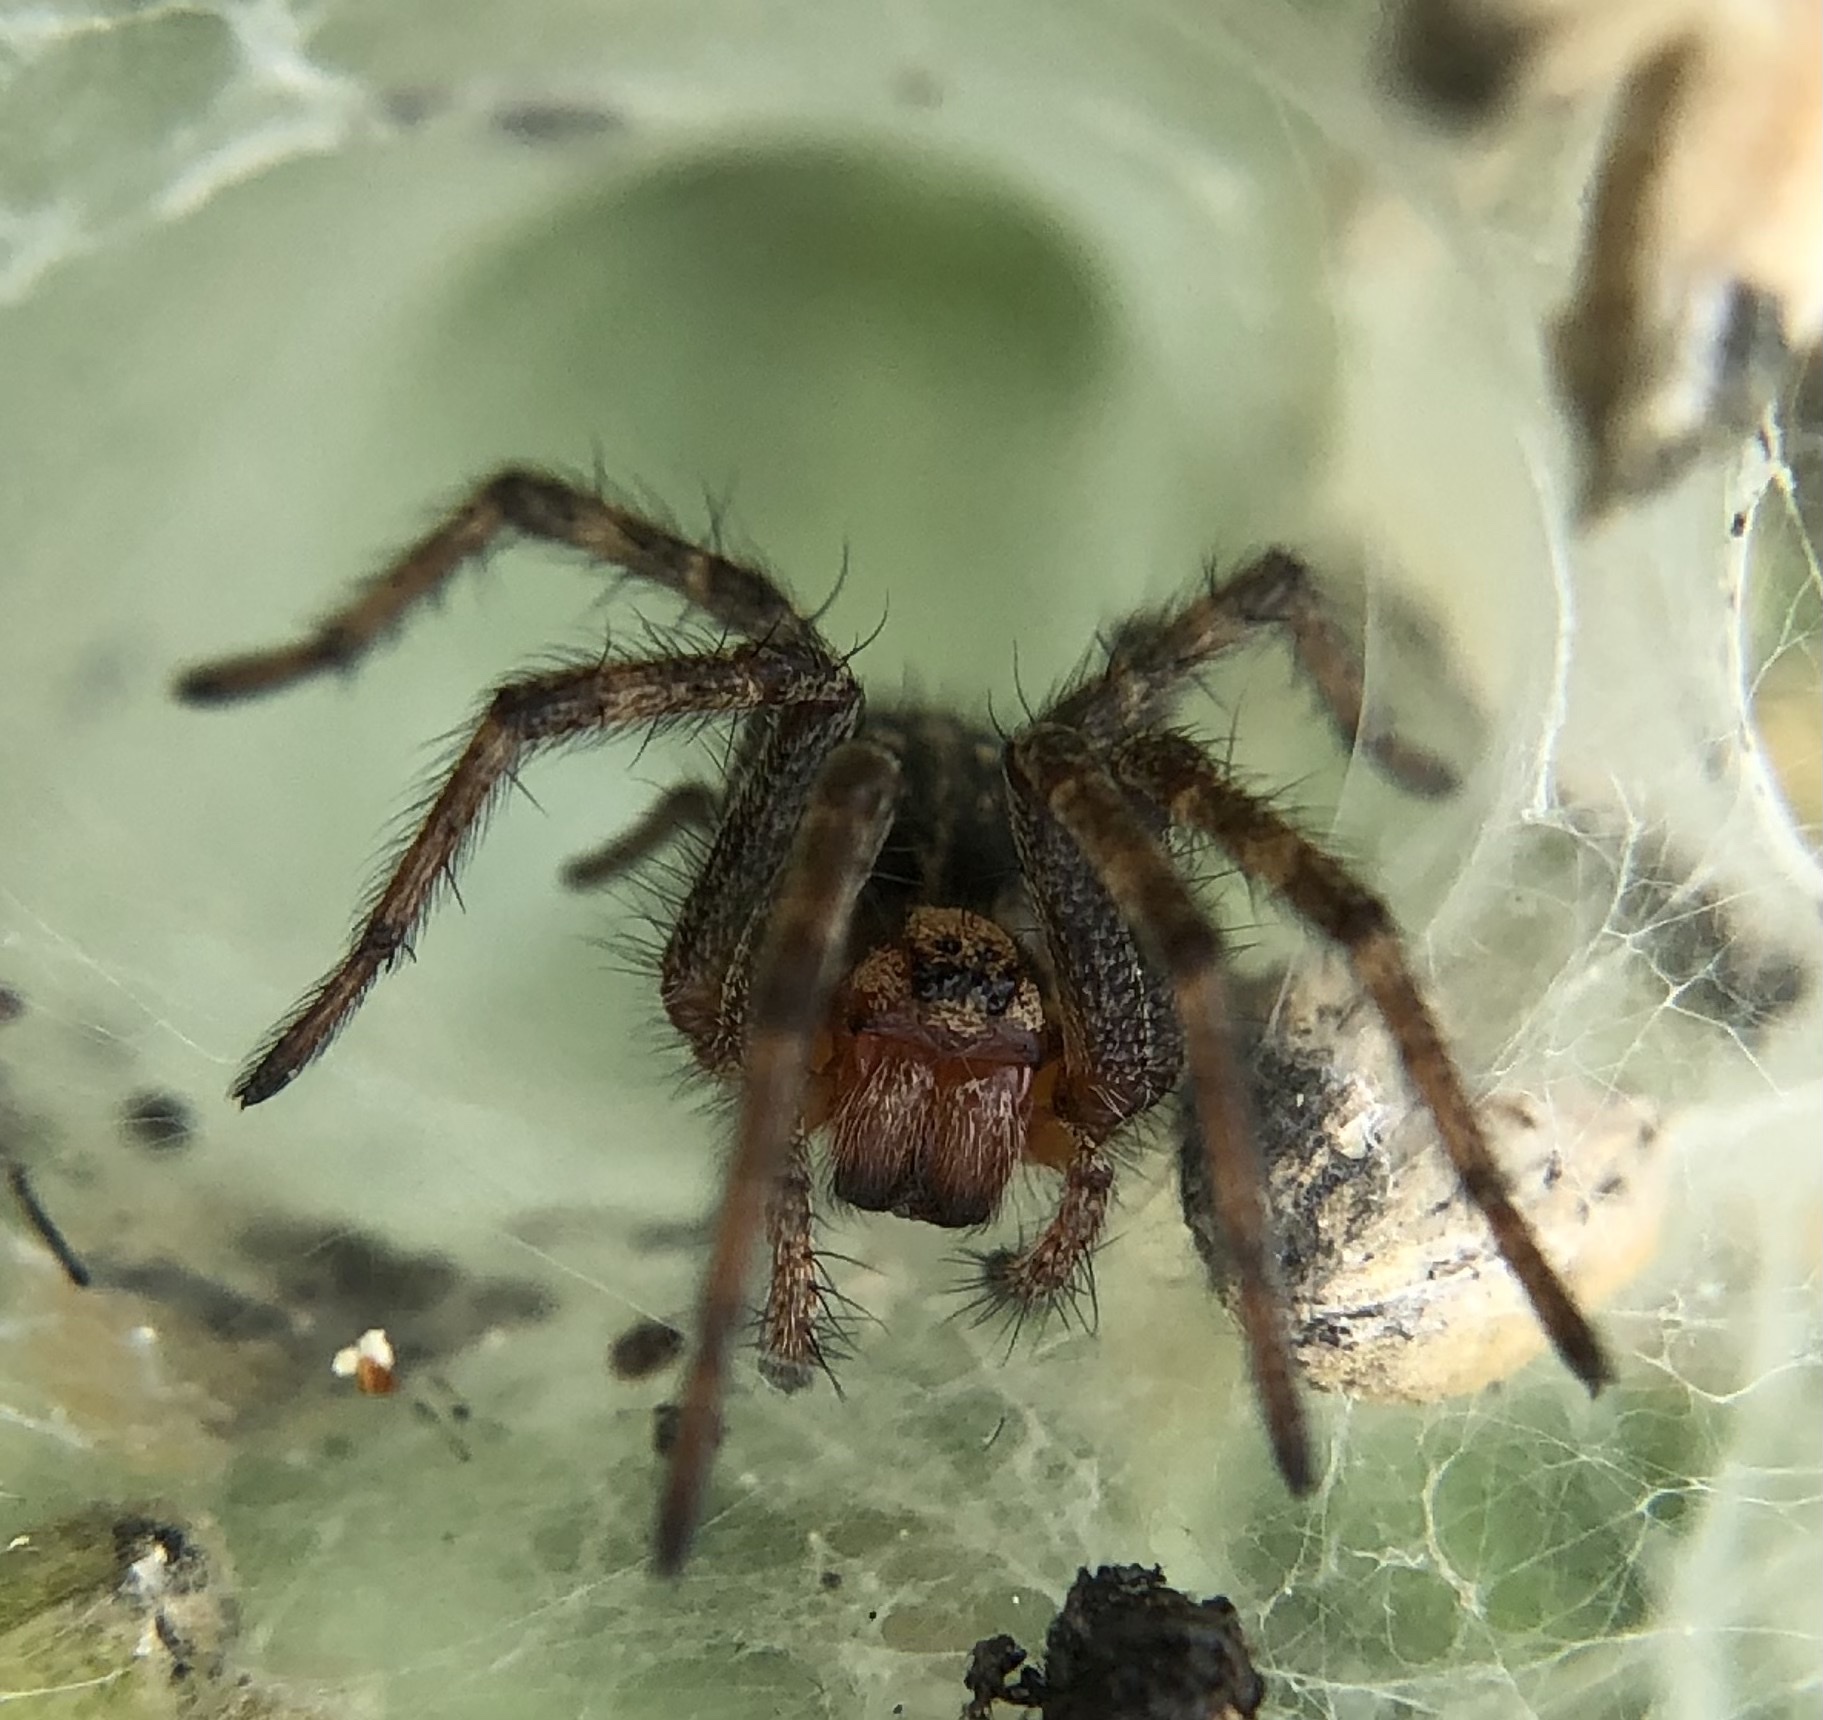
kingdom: Animalia
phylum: Arthropoda
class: Arachnida
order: Araneae
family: Agelenidae
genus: Agelena
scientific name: Agelena labyrinthica
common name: Labyrinth spider
